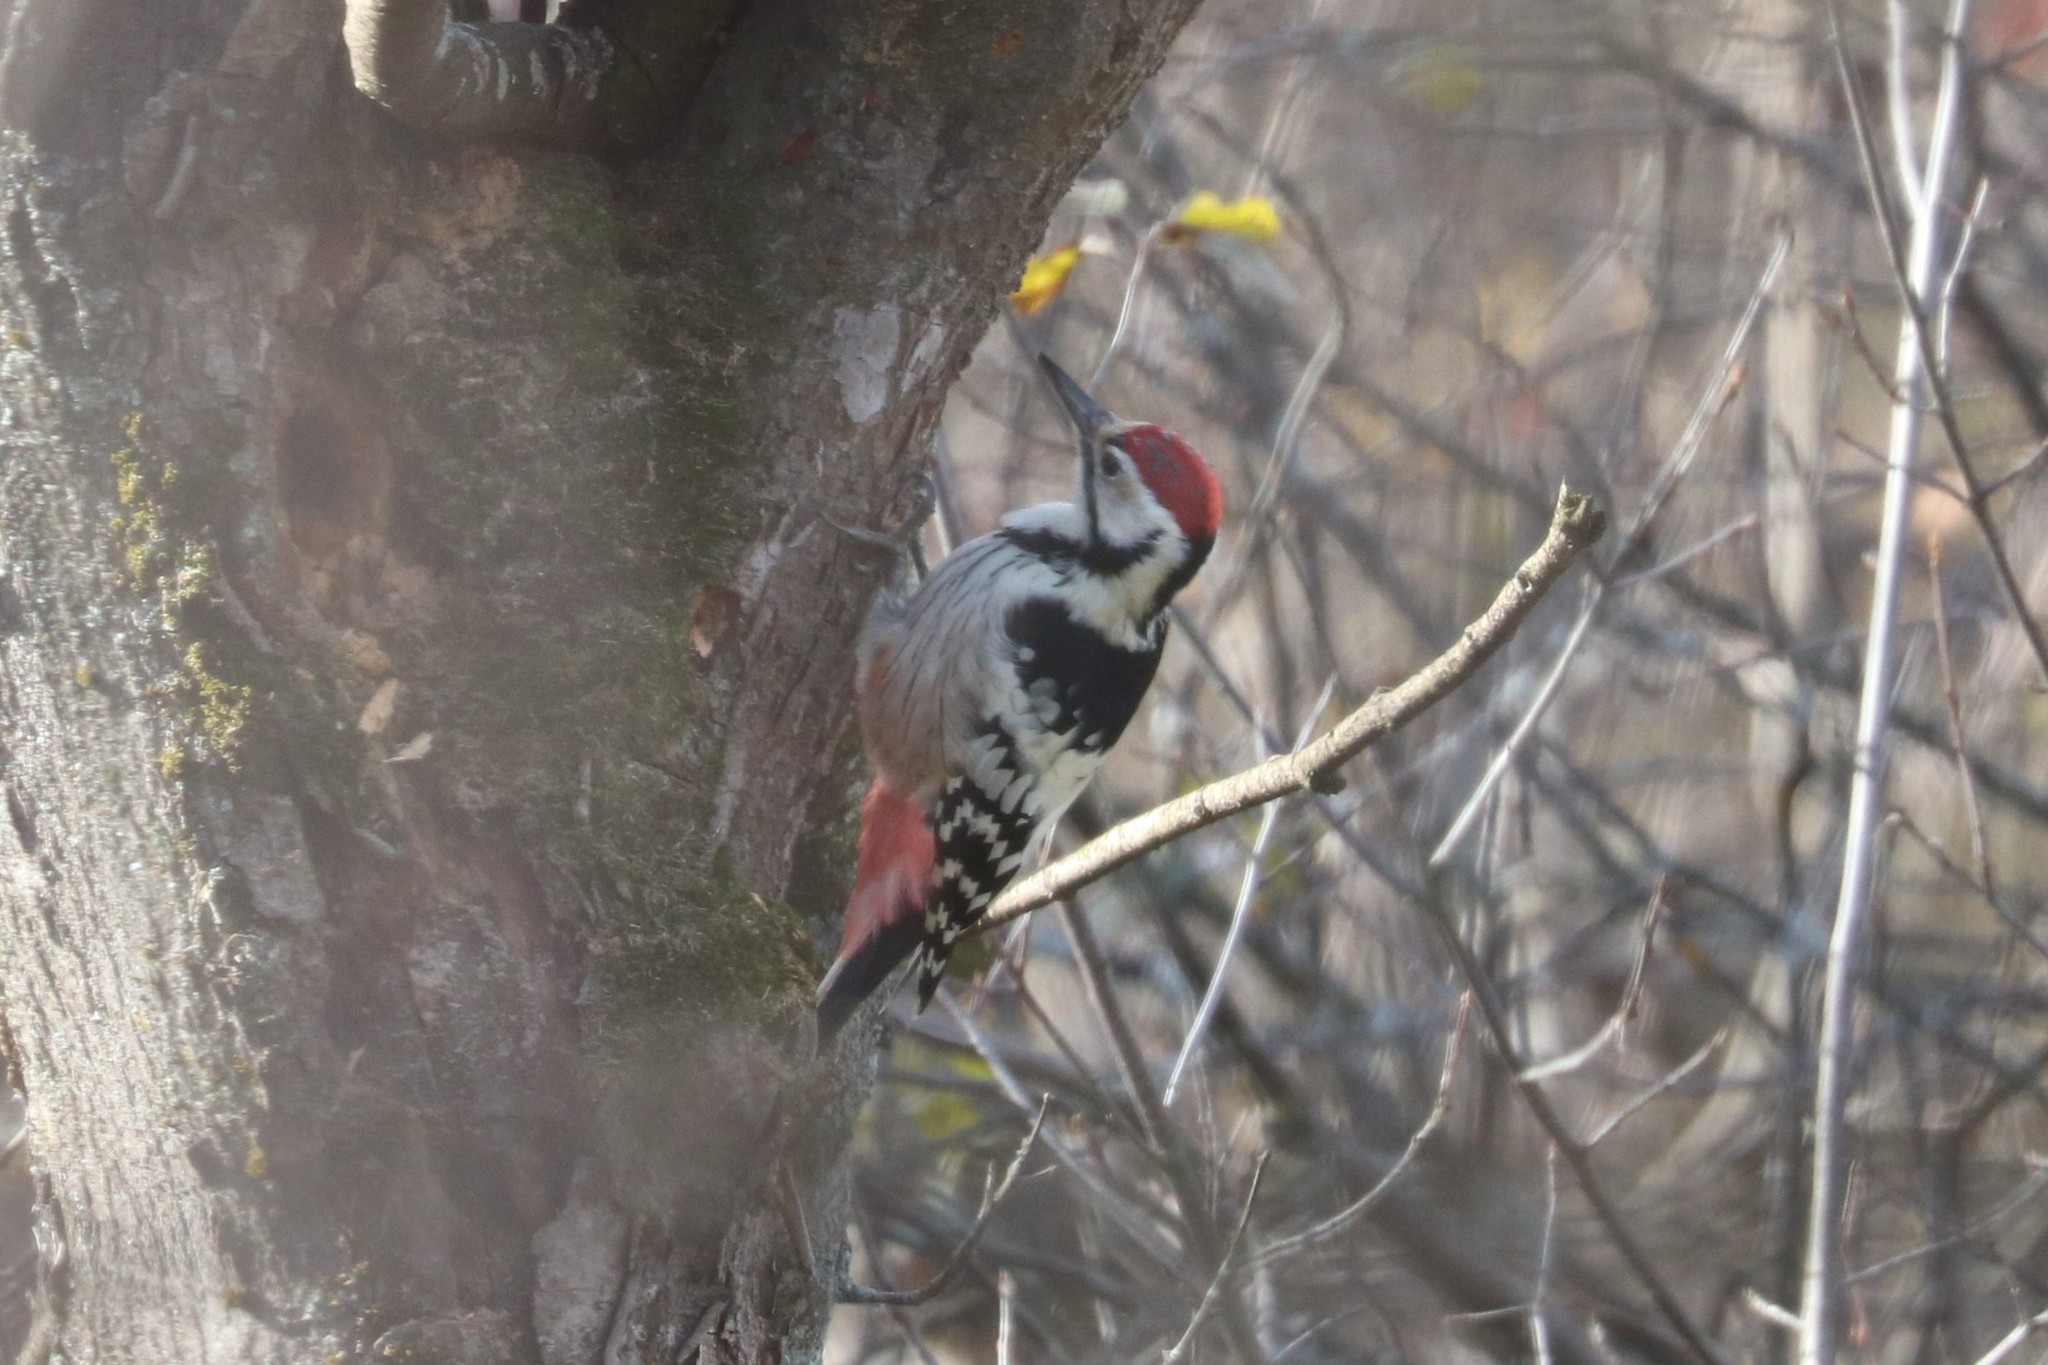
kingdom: Animalia
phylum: Chordata
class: Aves
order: Piciformes
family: Picidae
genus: Dendrocopos
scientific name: Dendrocopos leucotos
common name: White-backed woodpecker
